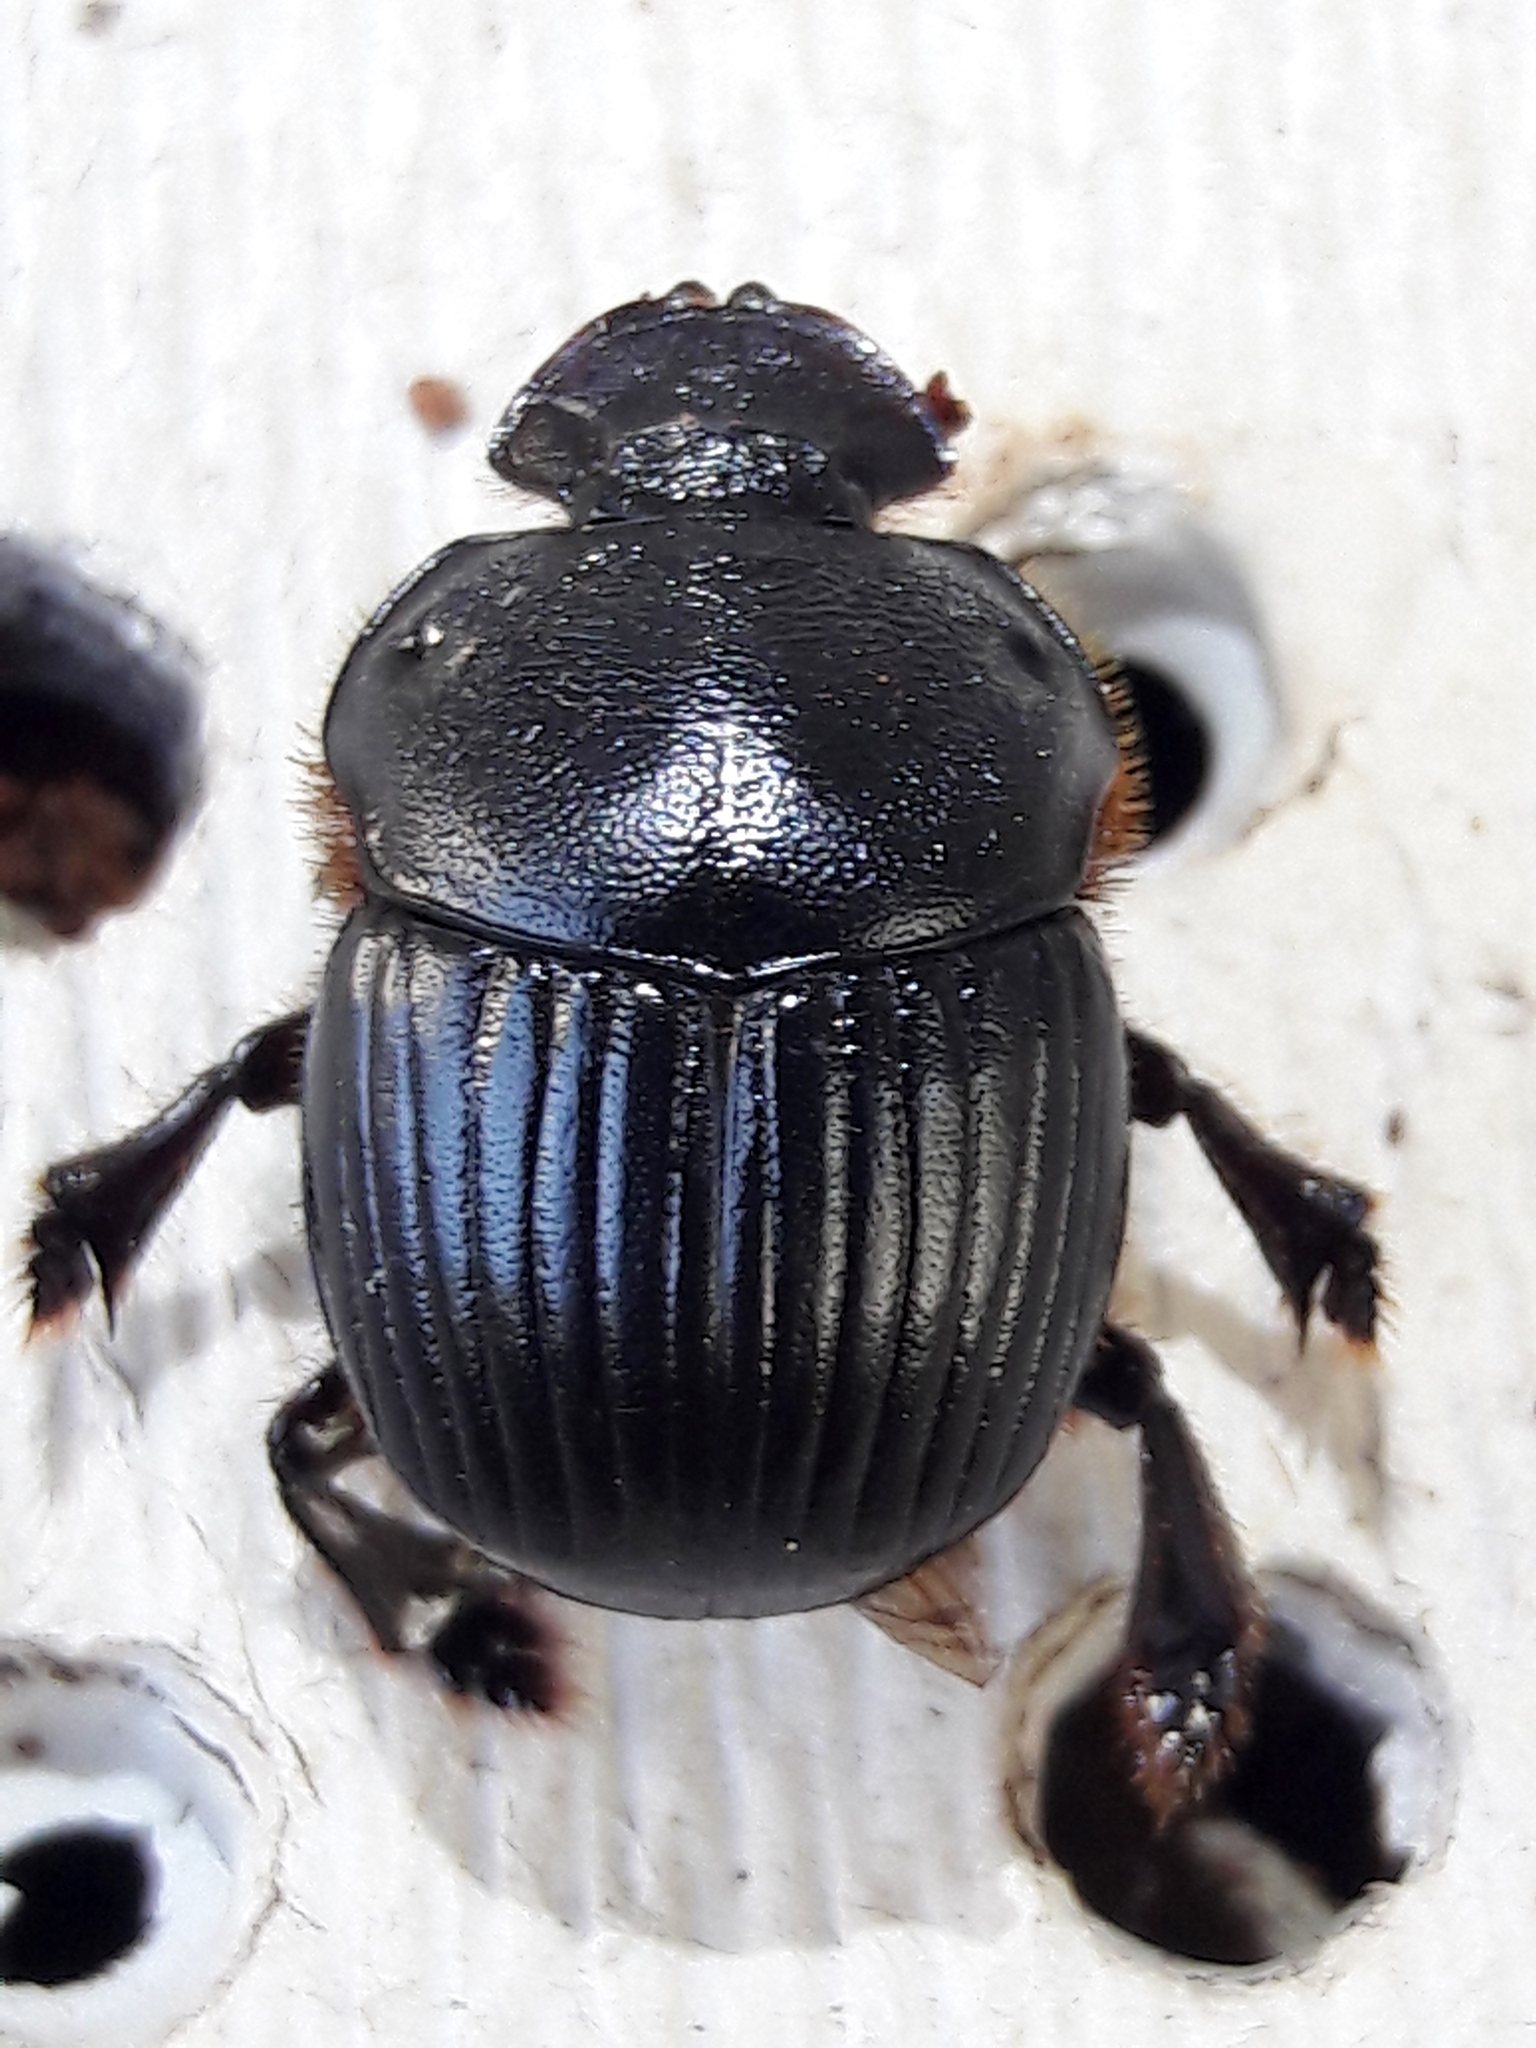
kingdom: Animalia
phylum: Arthropoda
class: Insecta
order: Coleoptera
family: Scarabaeidae
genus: Dendropaemon
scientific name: Dendropaemon convexus
